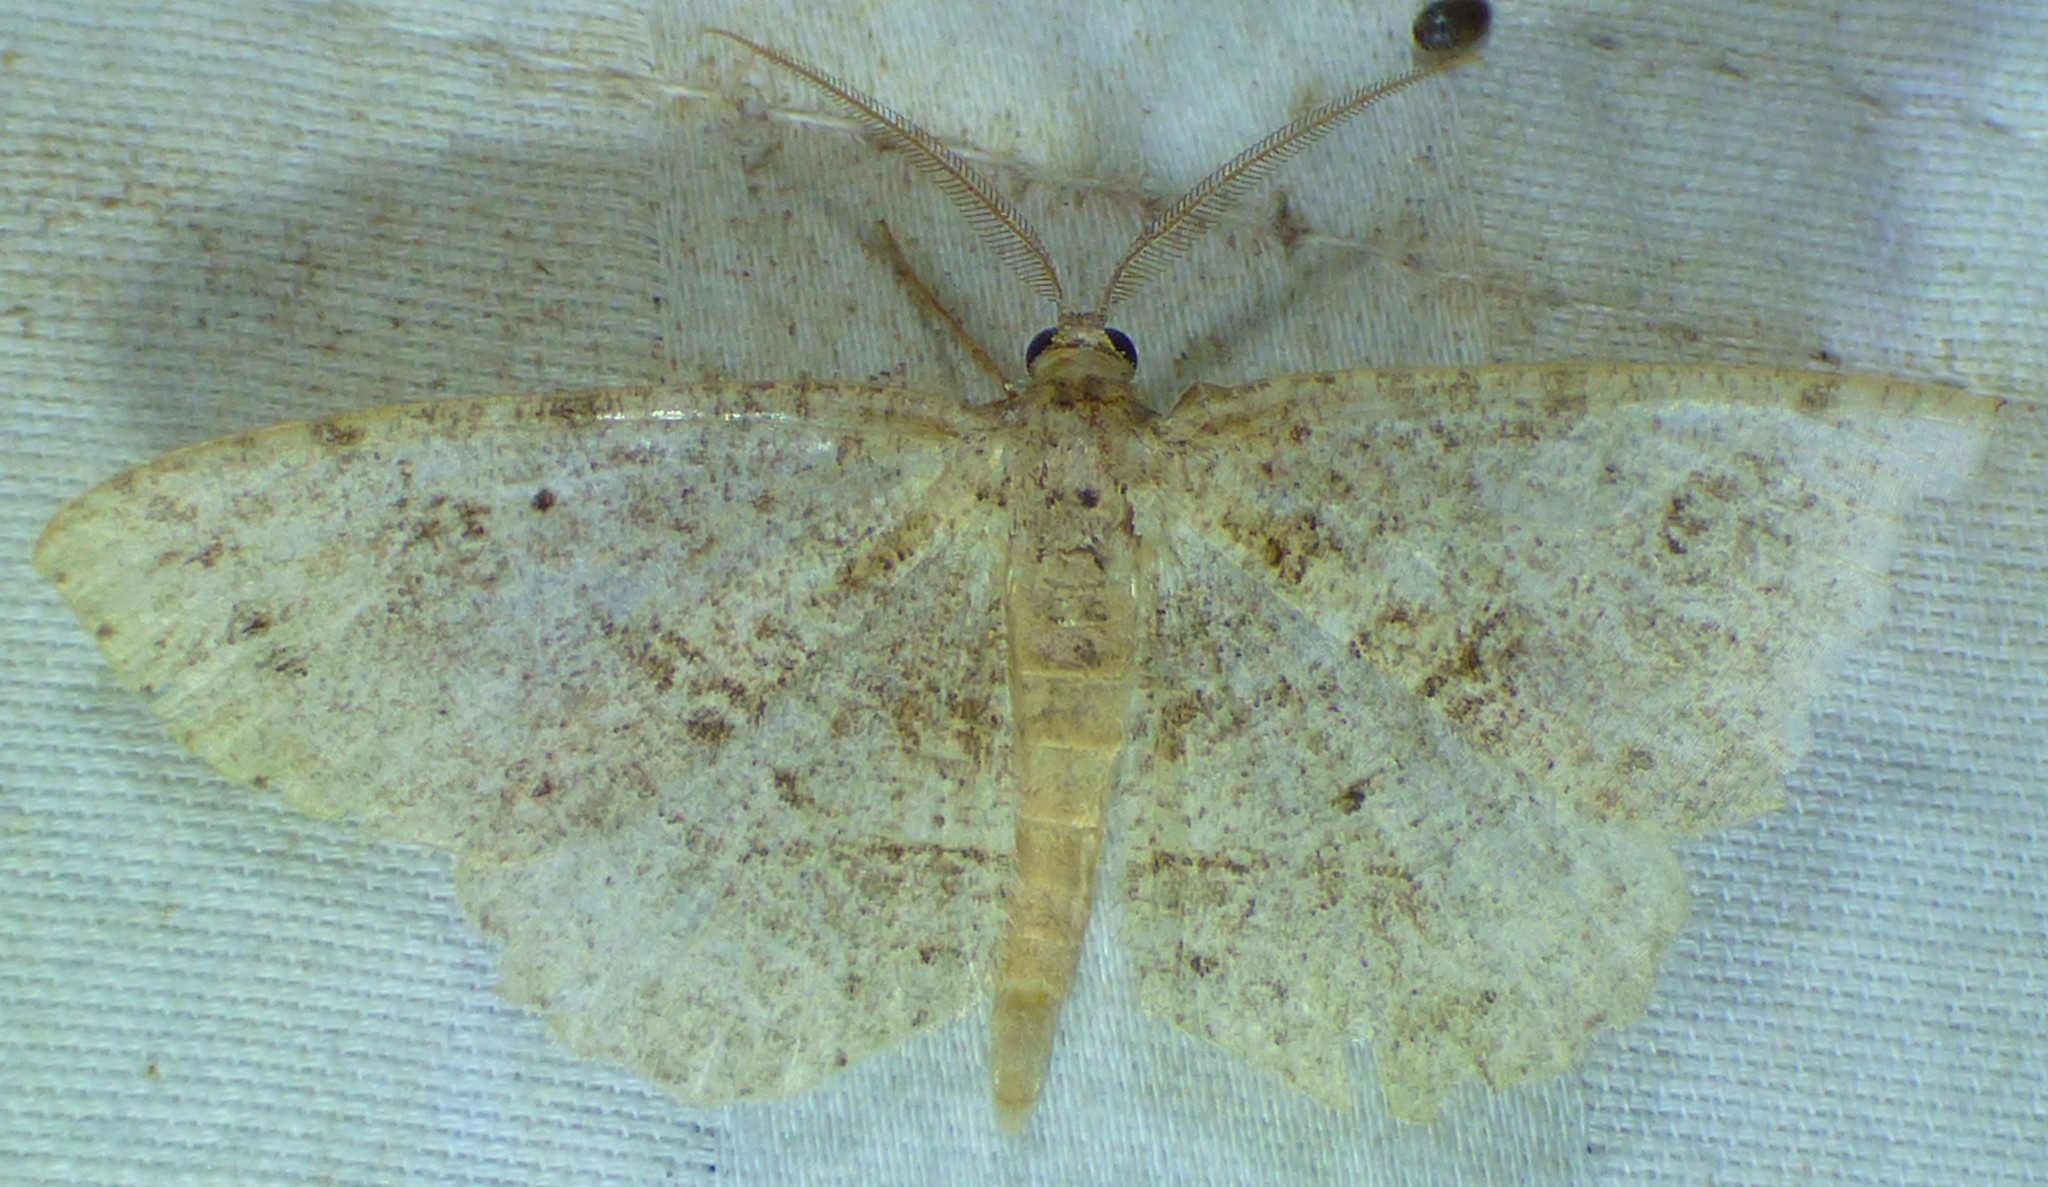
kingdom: Animalia
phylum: Arthropoda
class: Insecta
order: Lepidoptera
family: Geometridae
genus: Melanolophia
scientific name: Melanolophia signataria
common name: Signate melanolophia
